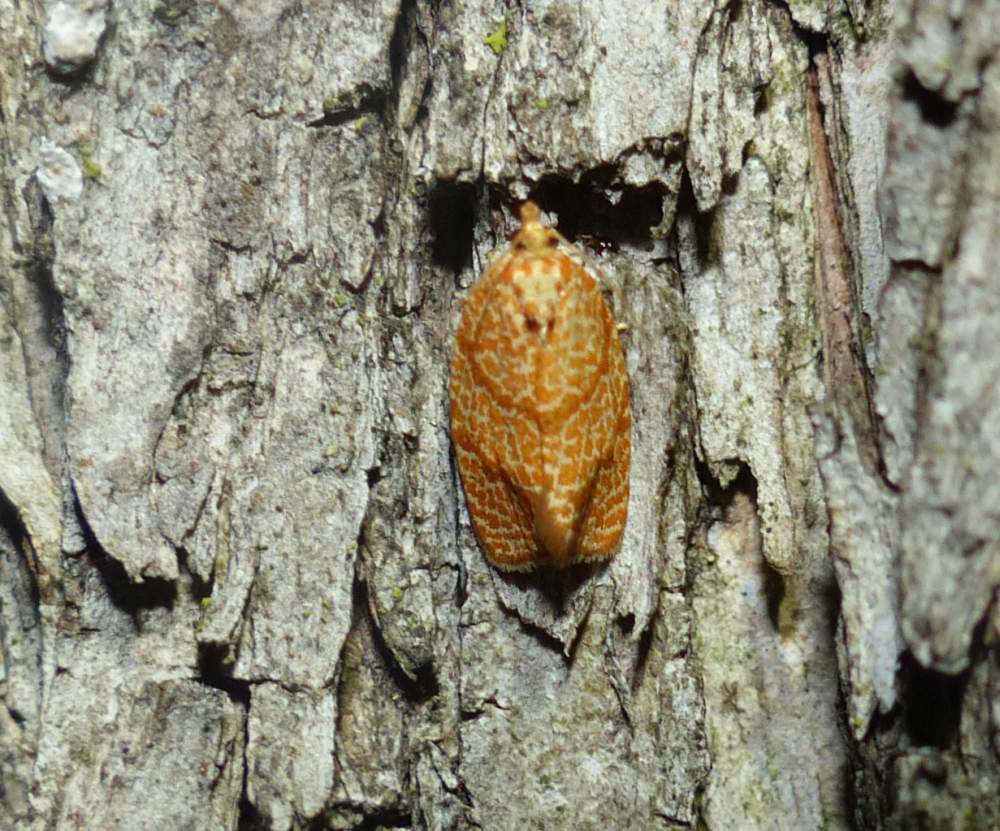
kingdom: Animalia
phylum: Arthropoda
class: Insecta
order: Lepidoptera
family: Tortricidae
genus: Argyrotaenia
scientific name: Argyrotaenia quadrifasciana
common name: Four-lined leafroller moth
